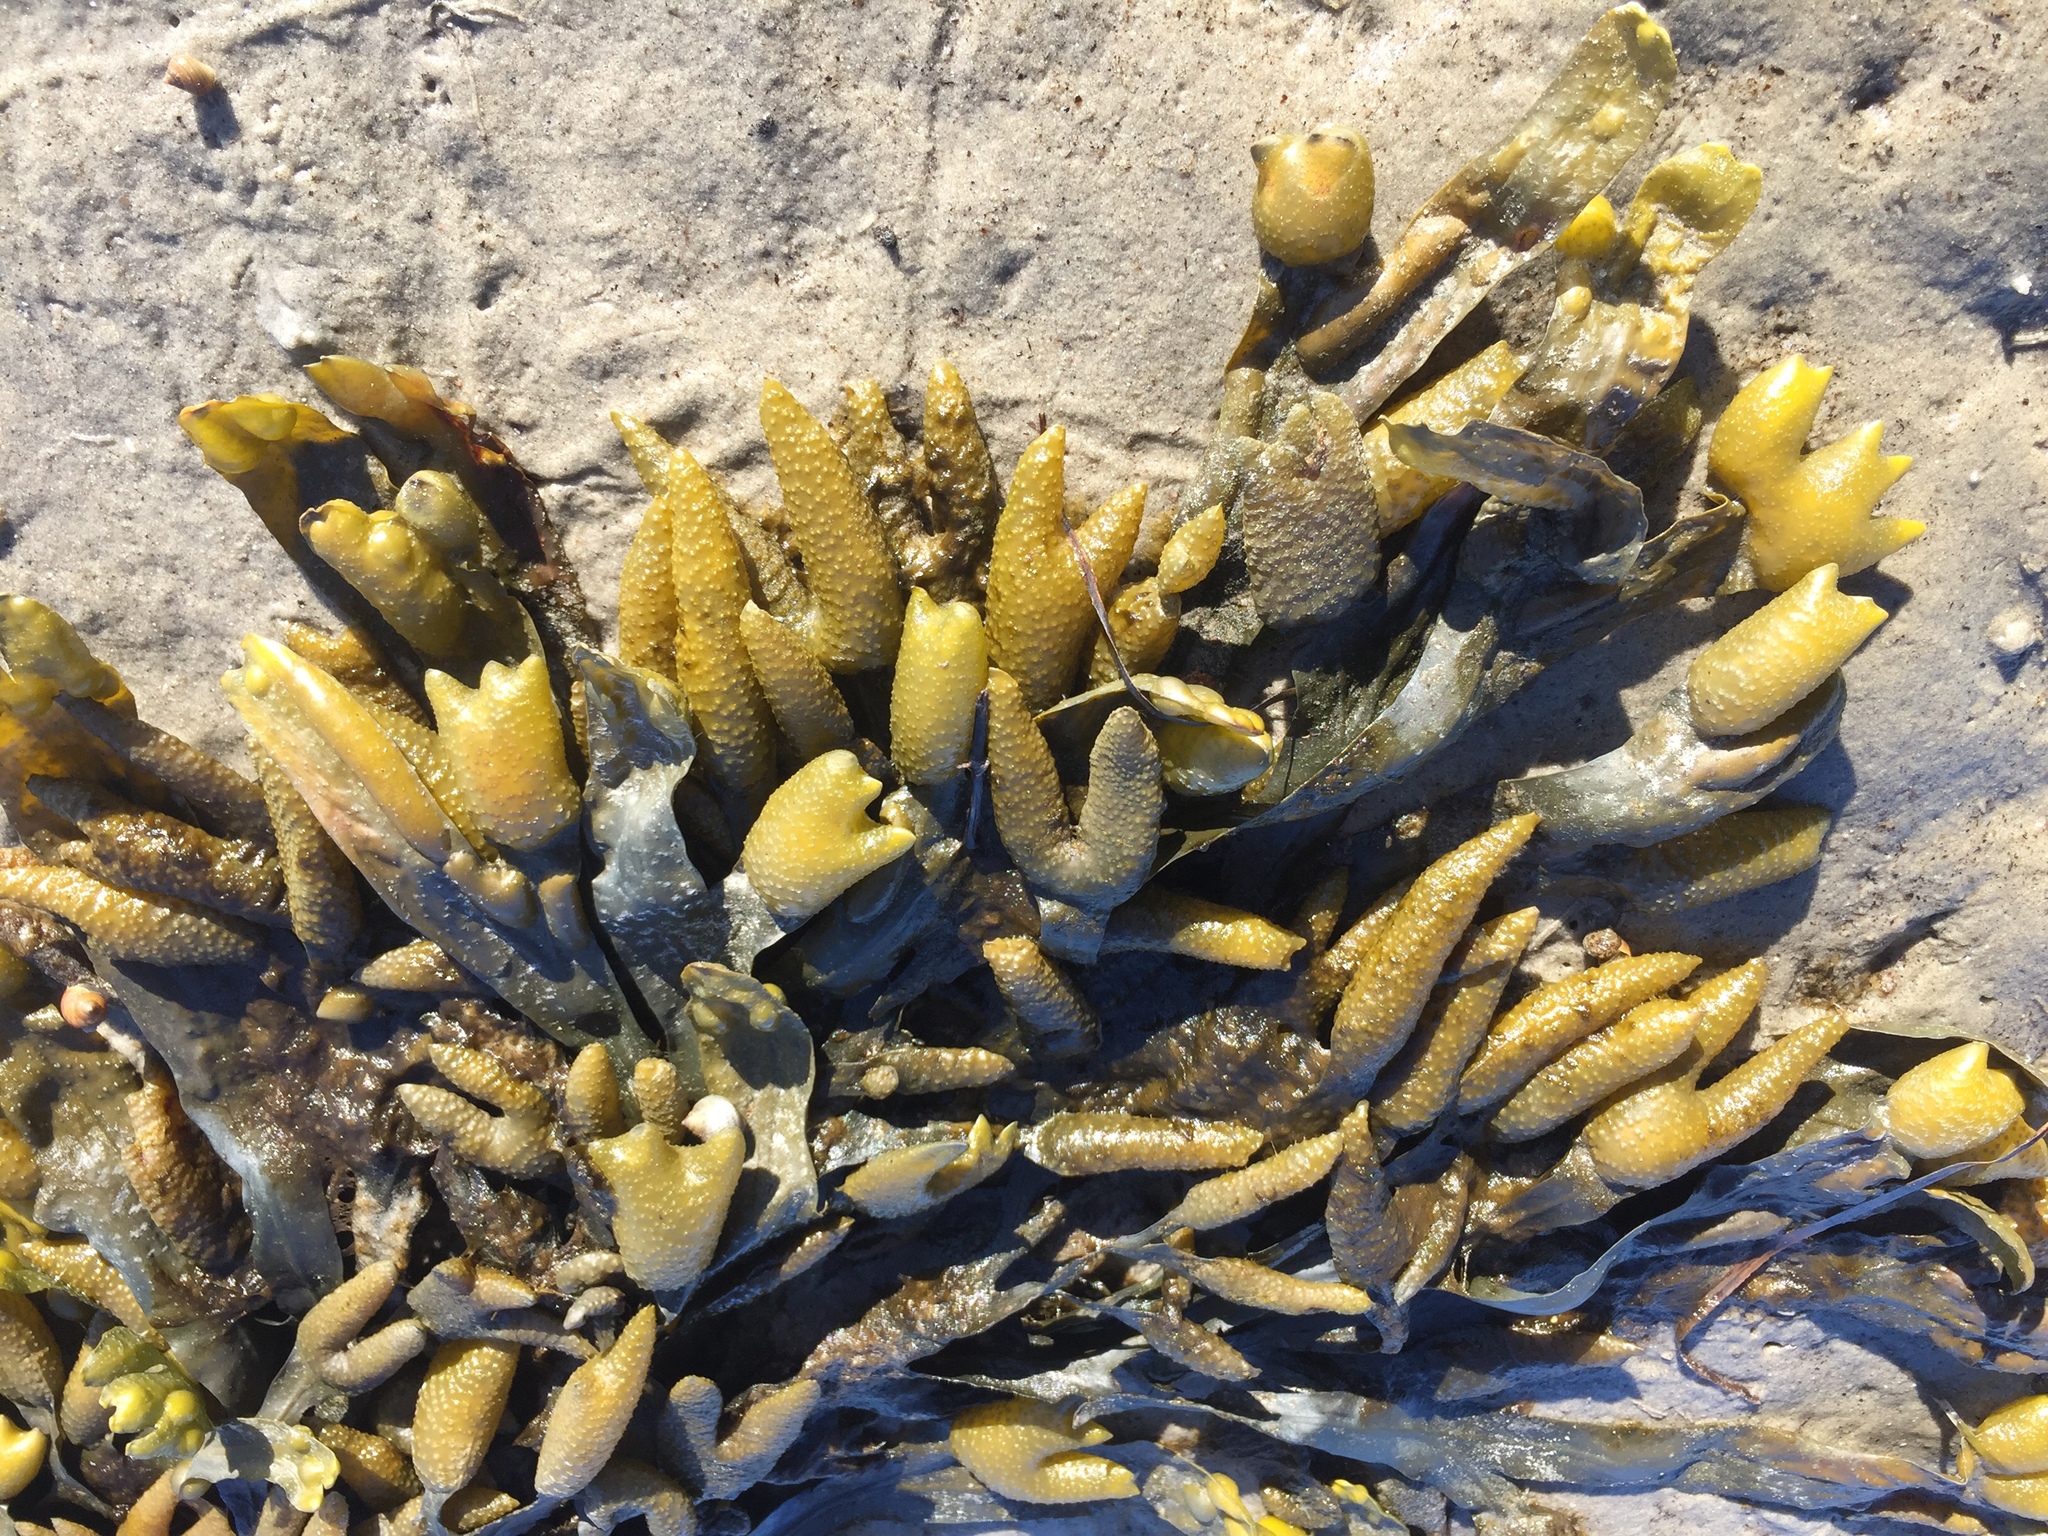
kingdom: Chromista
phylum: Ochrophyta
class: Phaeophyceae
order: Fucales
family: Fucaceae
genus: Fucus
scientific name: Fucus distichus
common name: Rockweed
